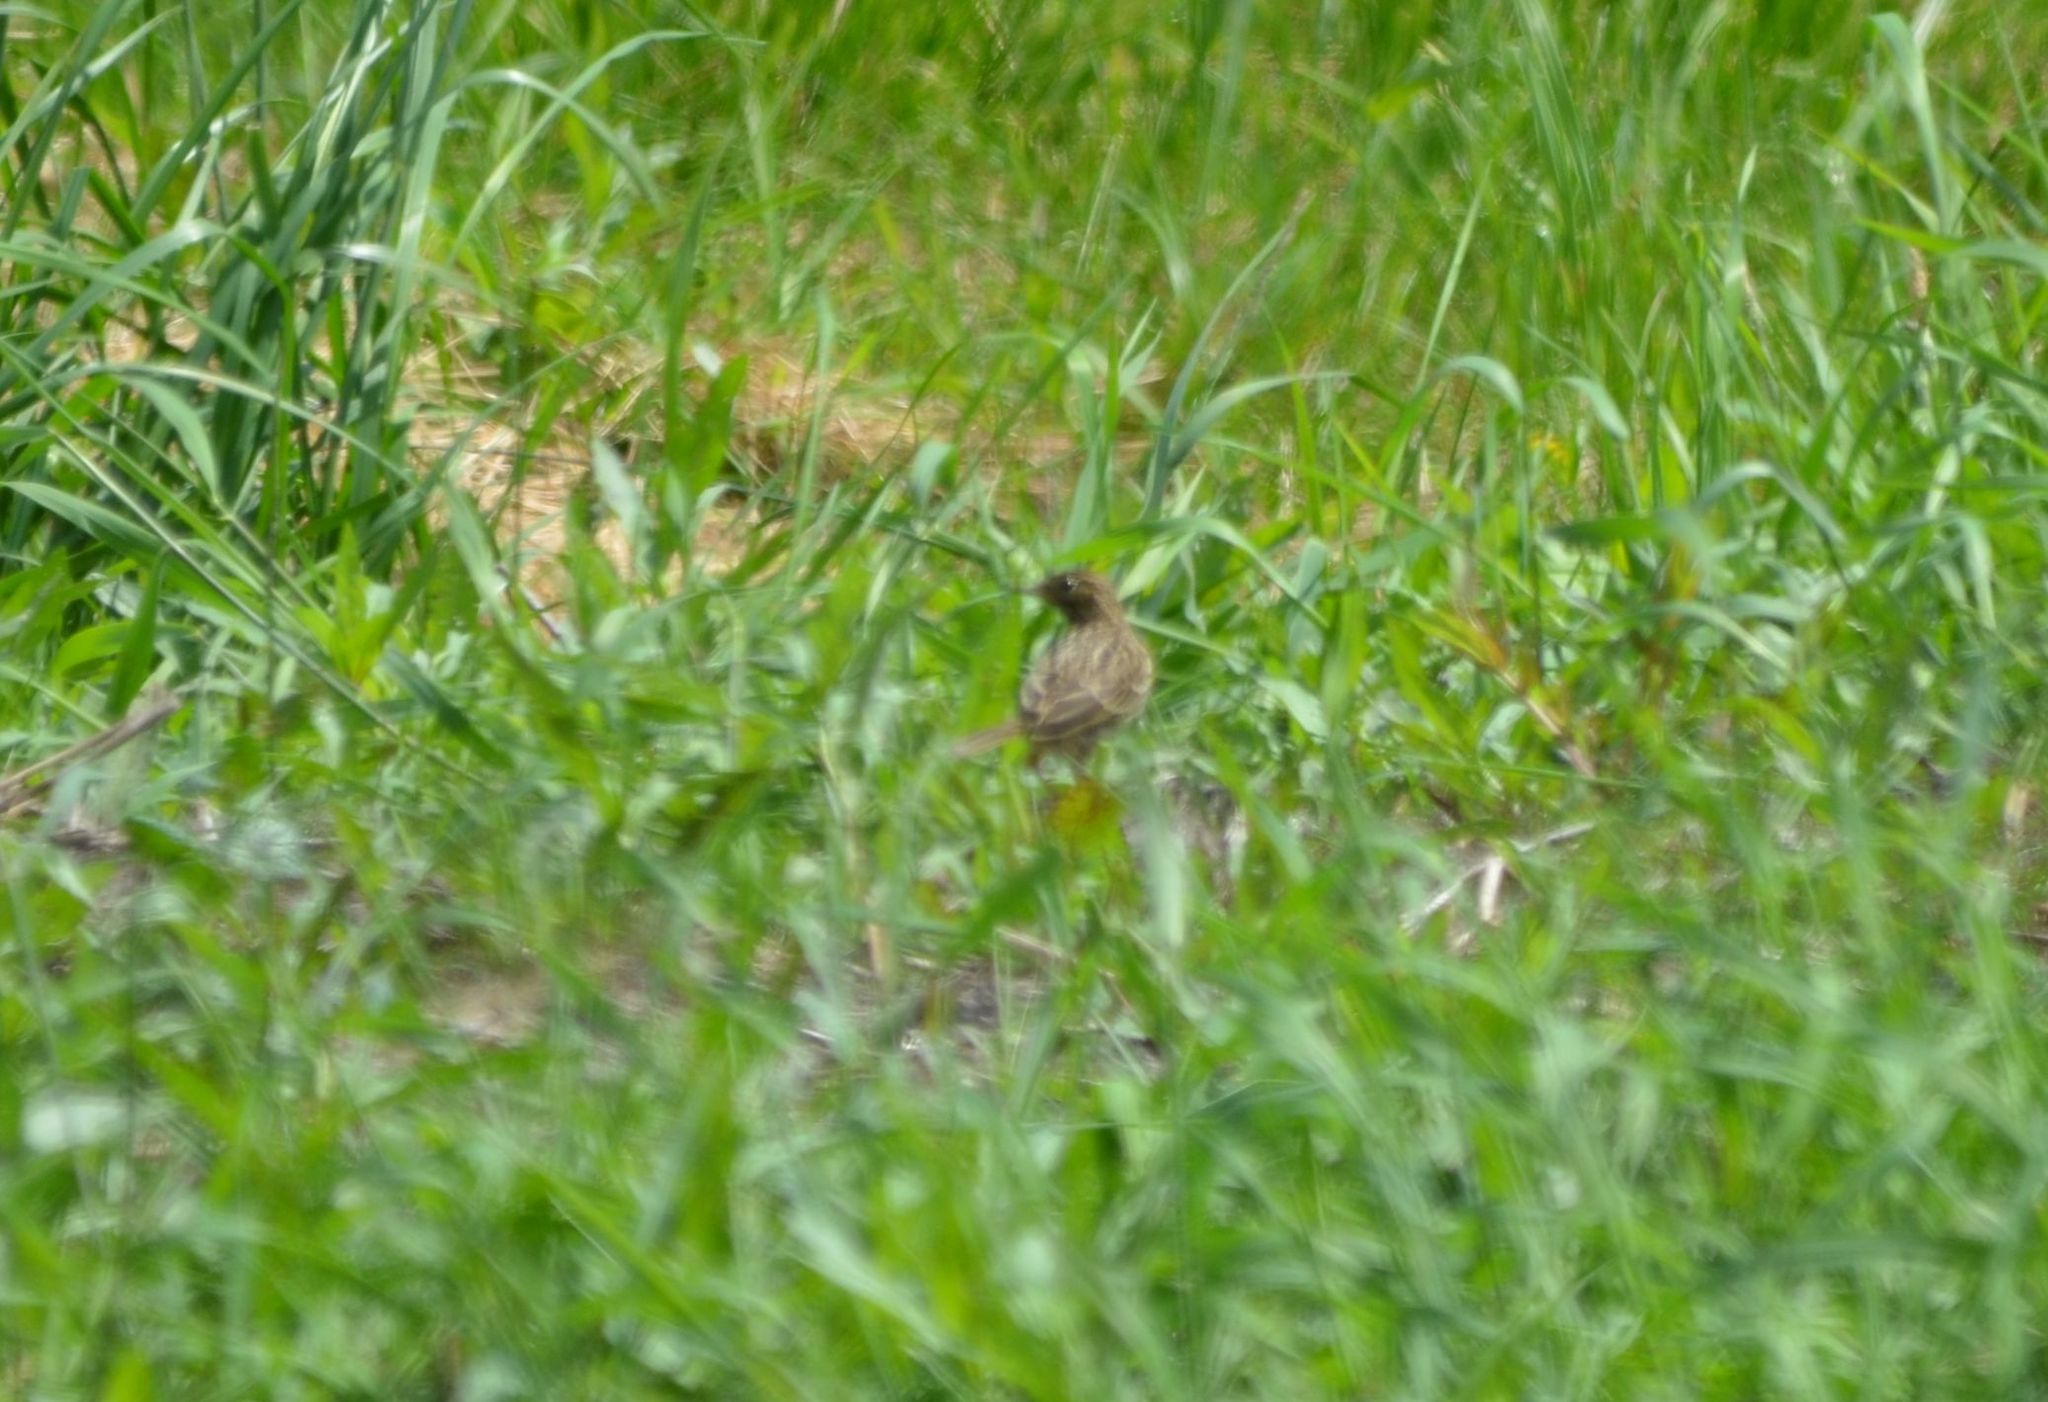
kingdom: Animalia
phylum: Chordata
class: Aves
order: Passeriformes
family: Motacillidae
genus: Anthus
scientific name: Anthus pratensis
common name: Meadow pipit
